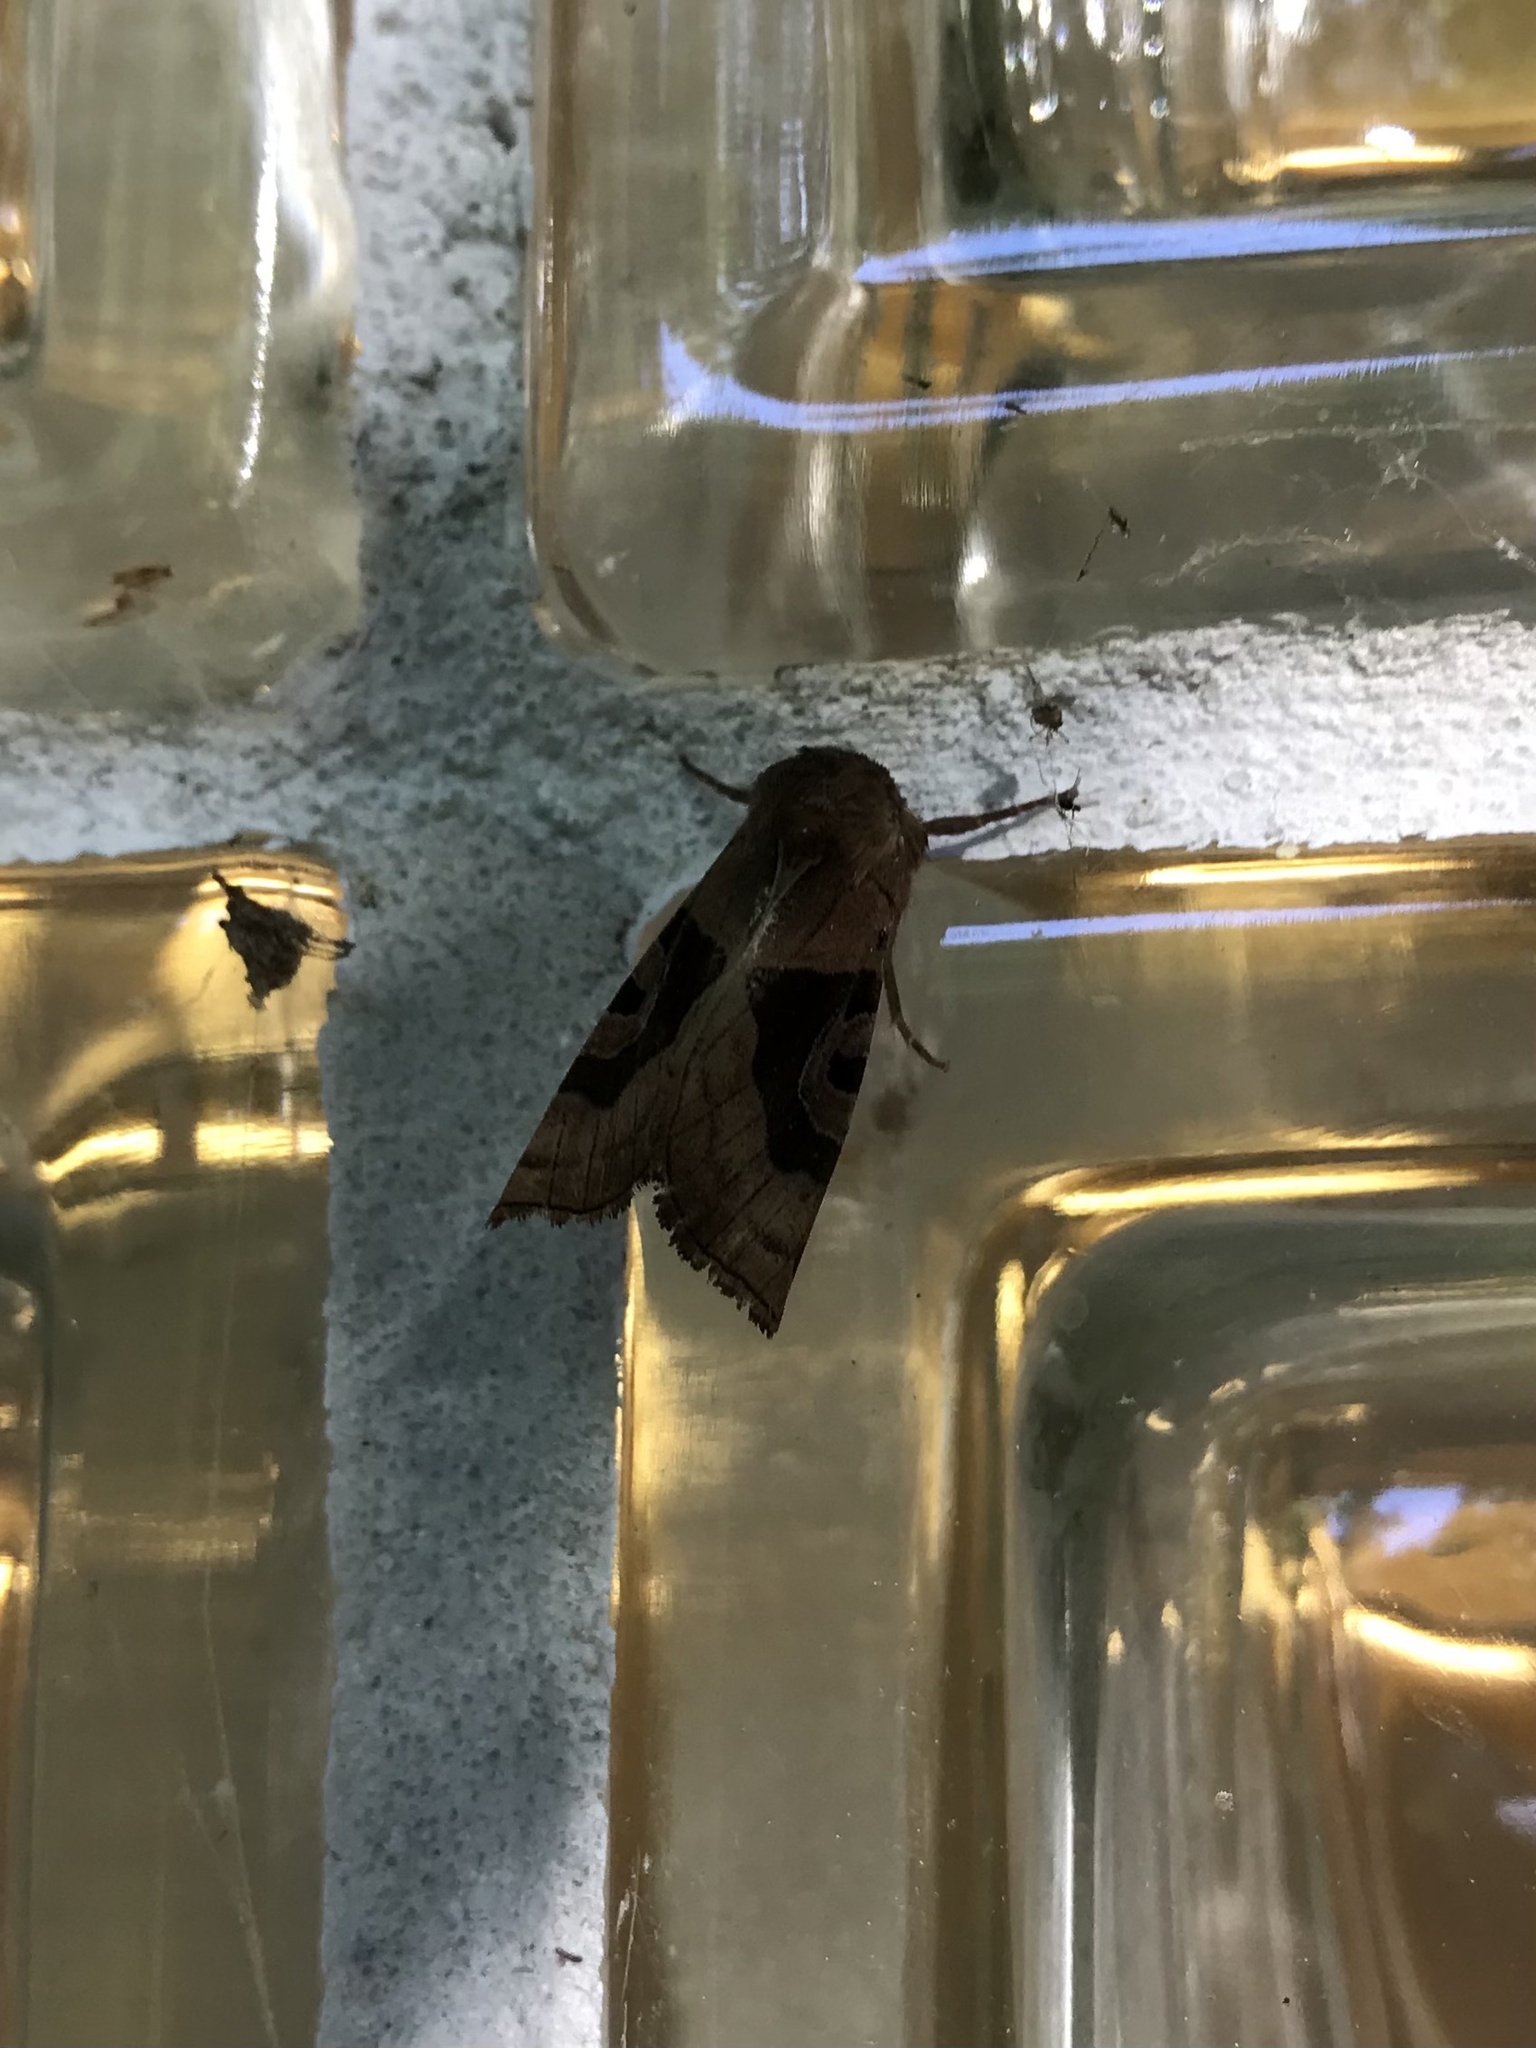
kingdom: Animalia
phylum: Arthropoda
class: Insecta
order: Lepidoptera
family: Noctuidae
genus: Conservula
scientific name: Conservula anodonta
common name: Sharp angle shades
